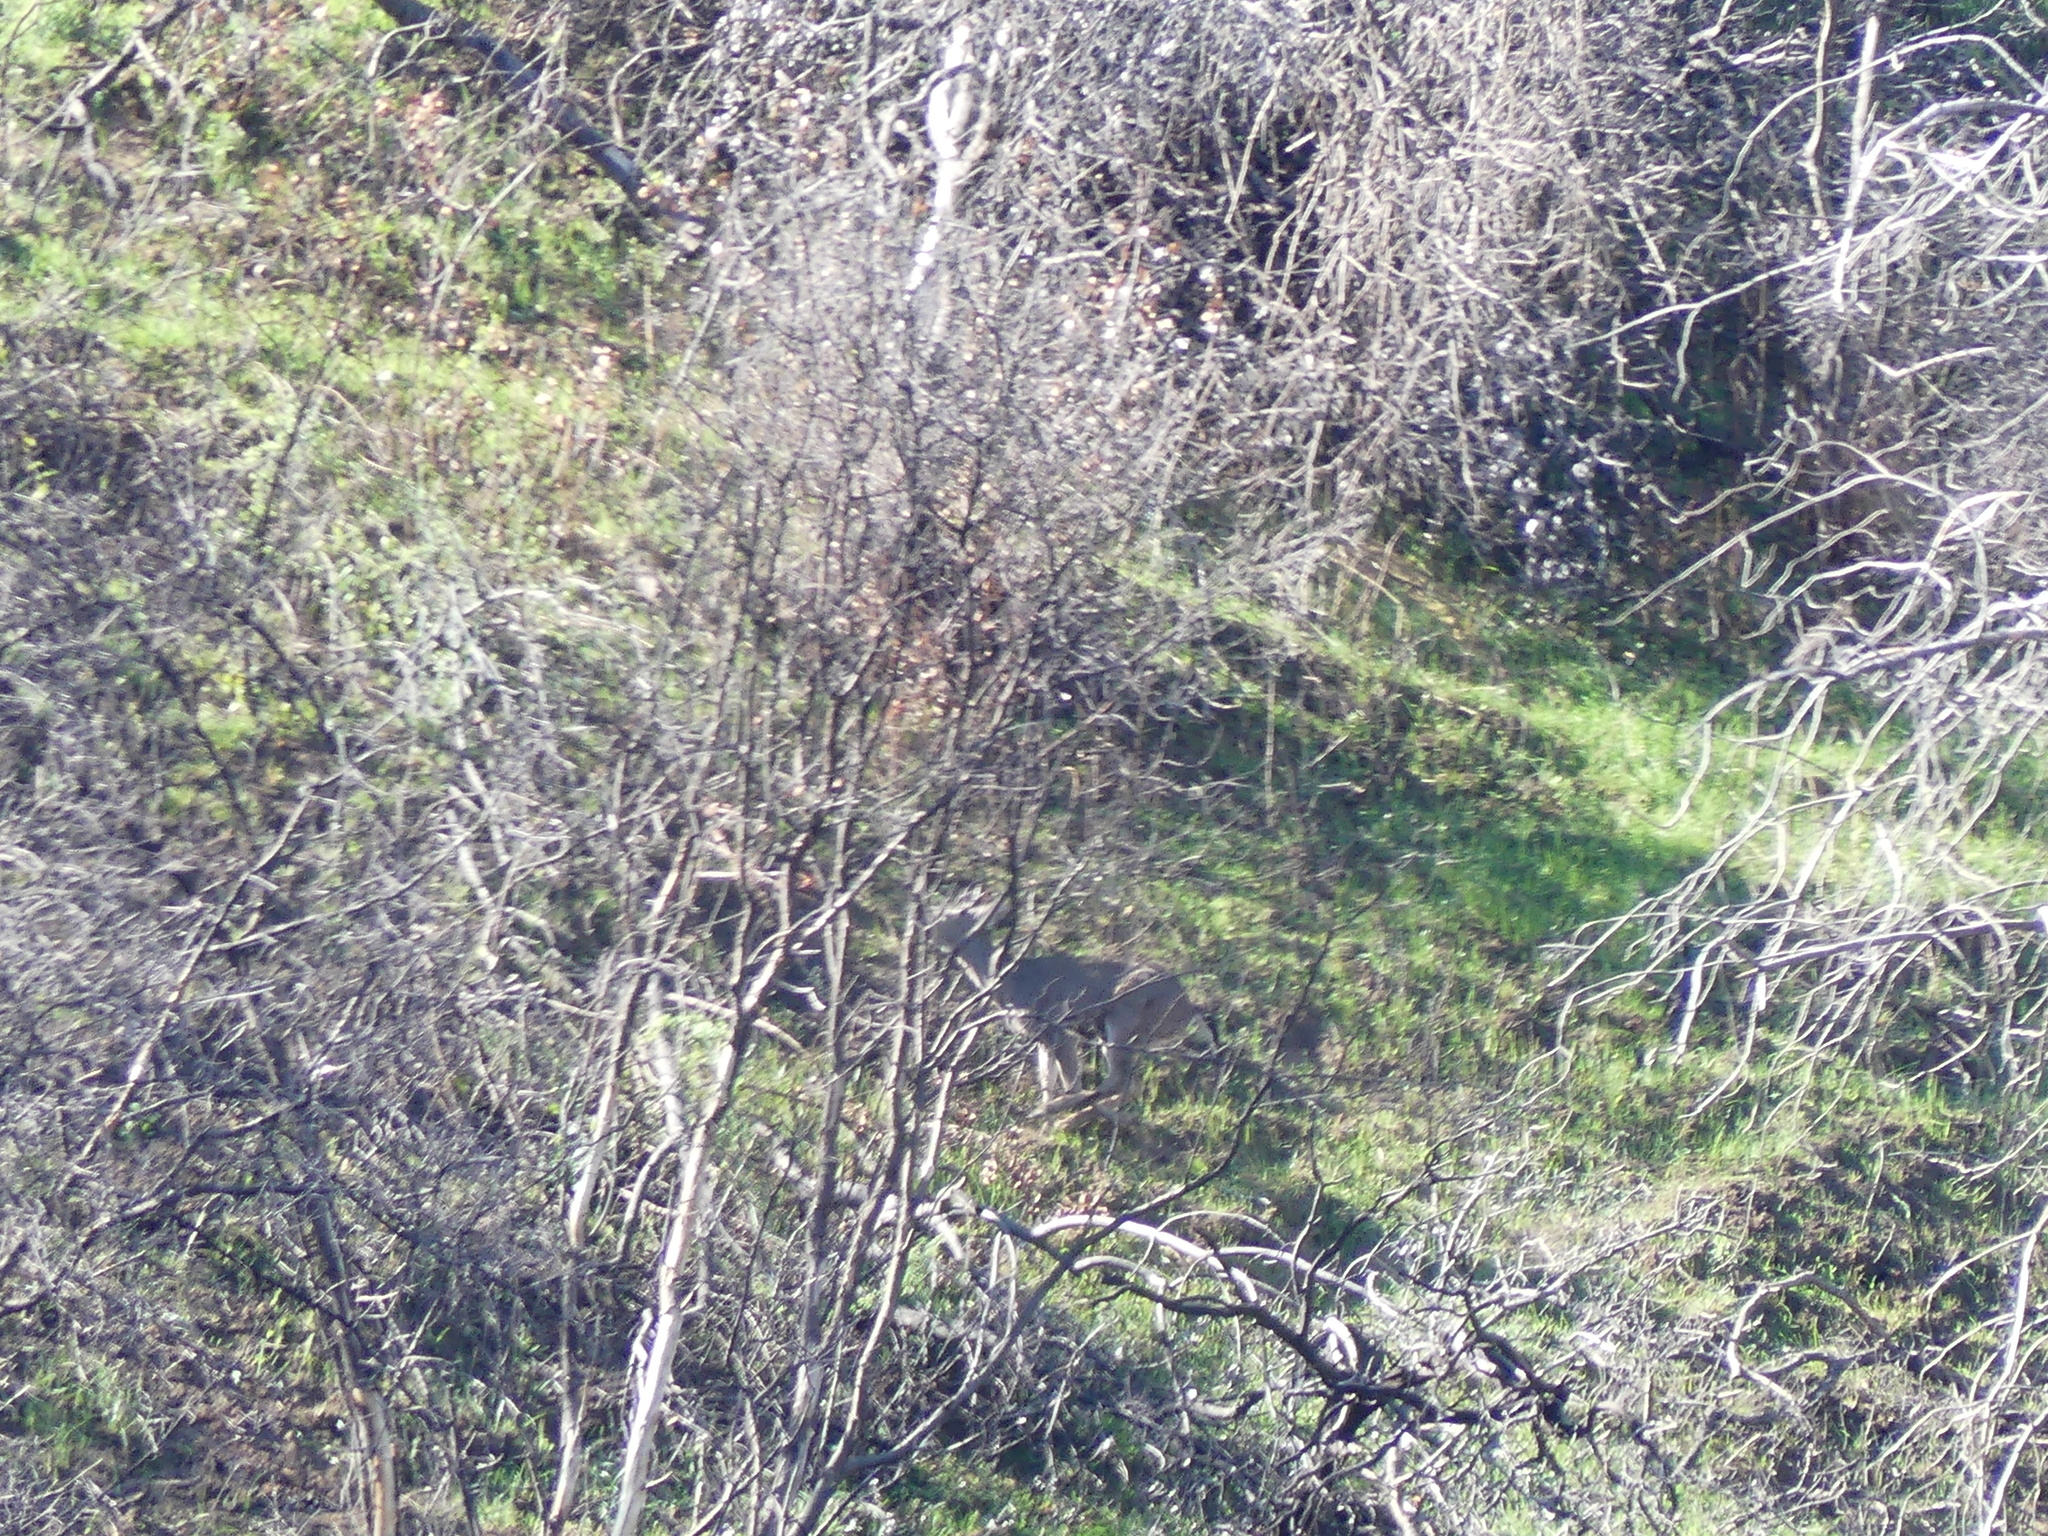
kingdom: Animalia
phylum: Chordata
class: Mammalia
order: Artiodactyla
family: Cervidae
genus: Odocoileus
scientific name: Odocoileus hemionus
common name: Mule deer
